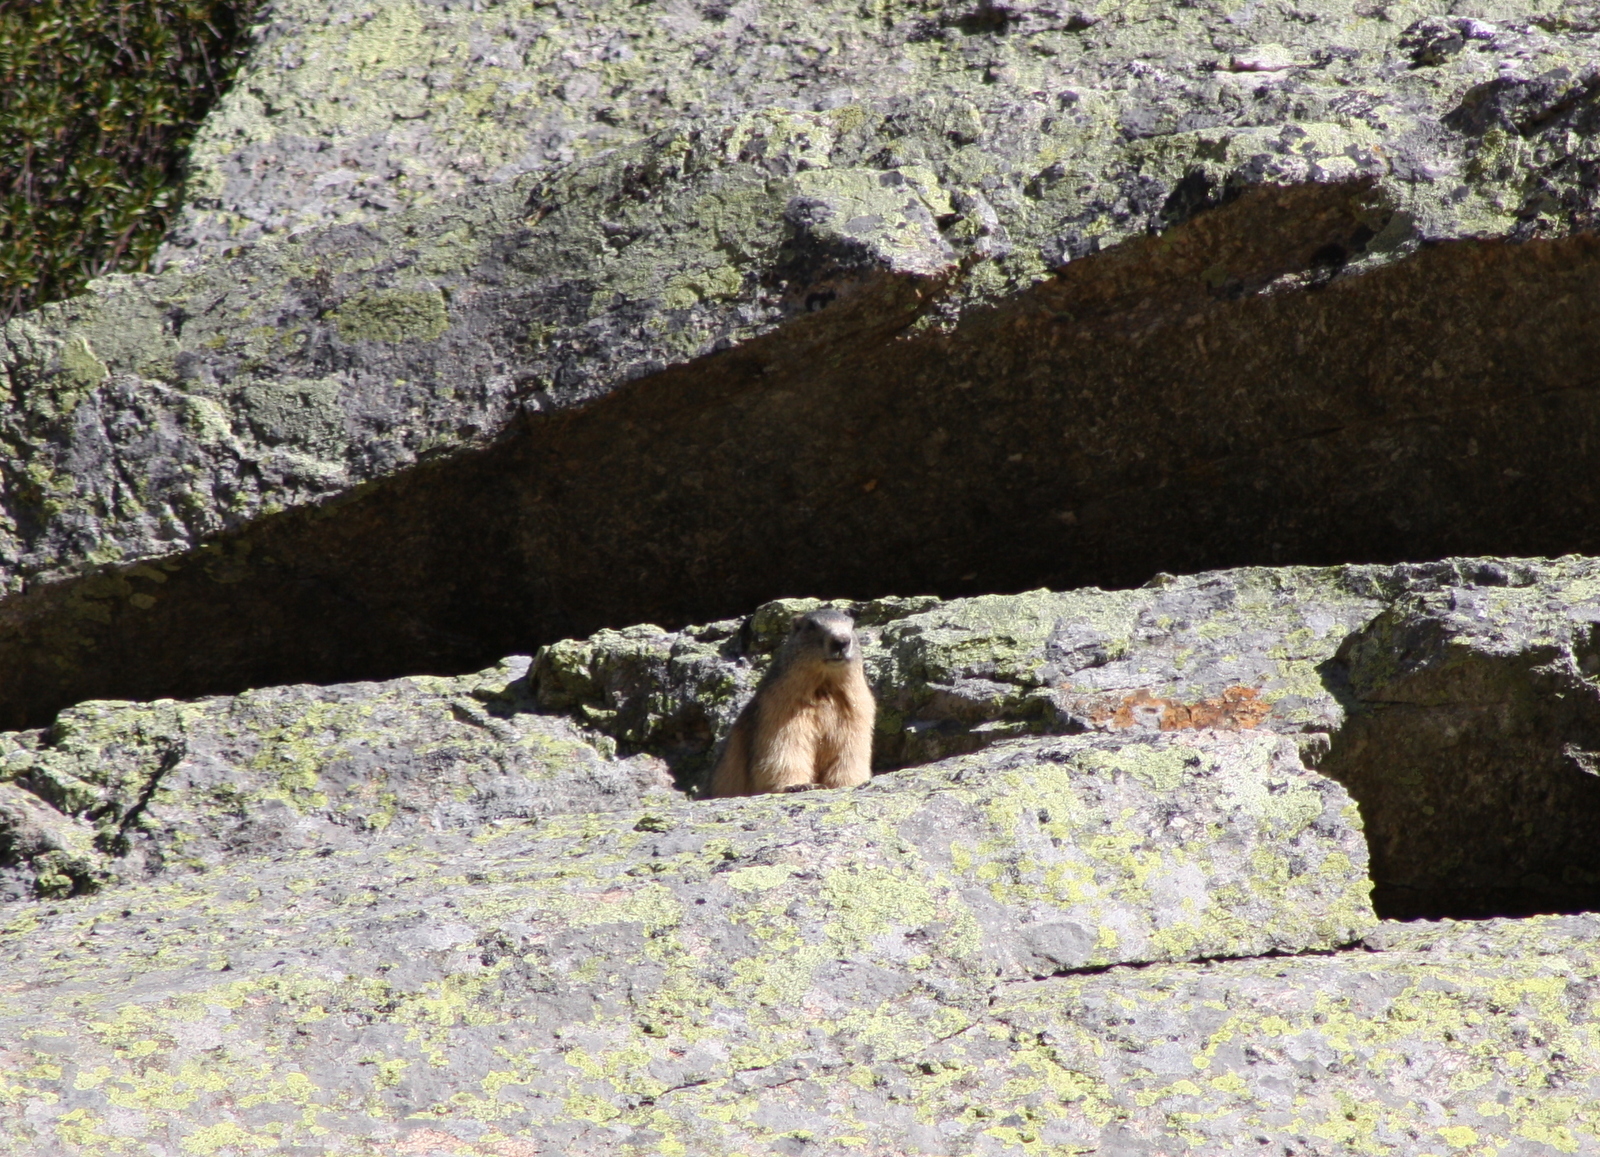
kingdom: Animalia
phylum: Chordata
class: Mammalia
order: Rodentia
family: Sciuridae
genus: Marmota
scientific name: Marmota marmota
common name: Alpine marmot
